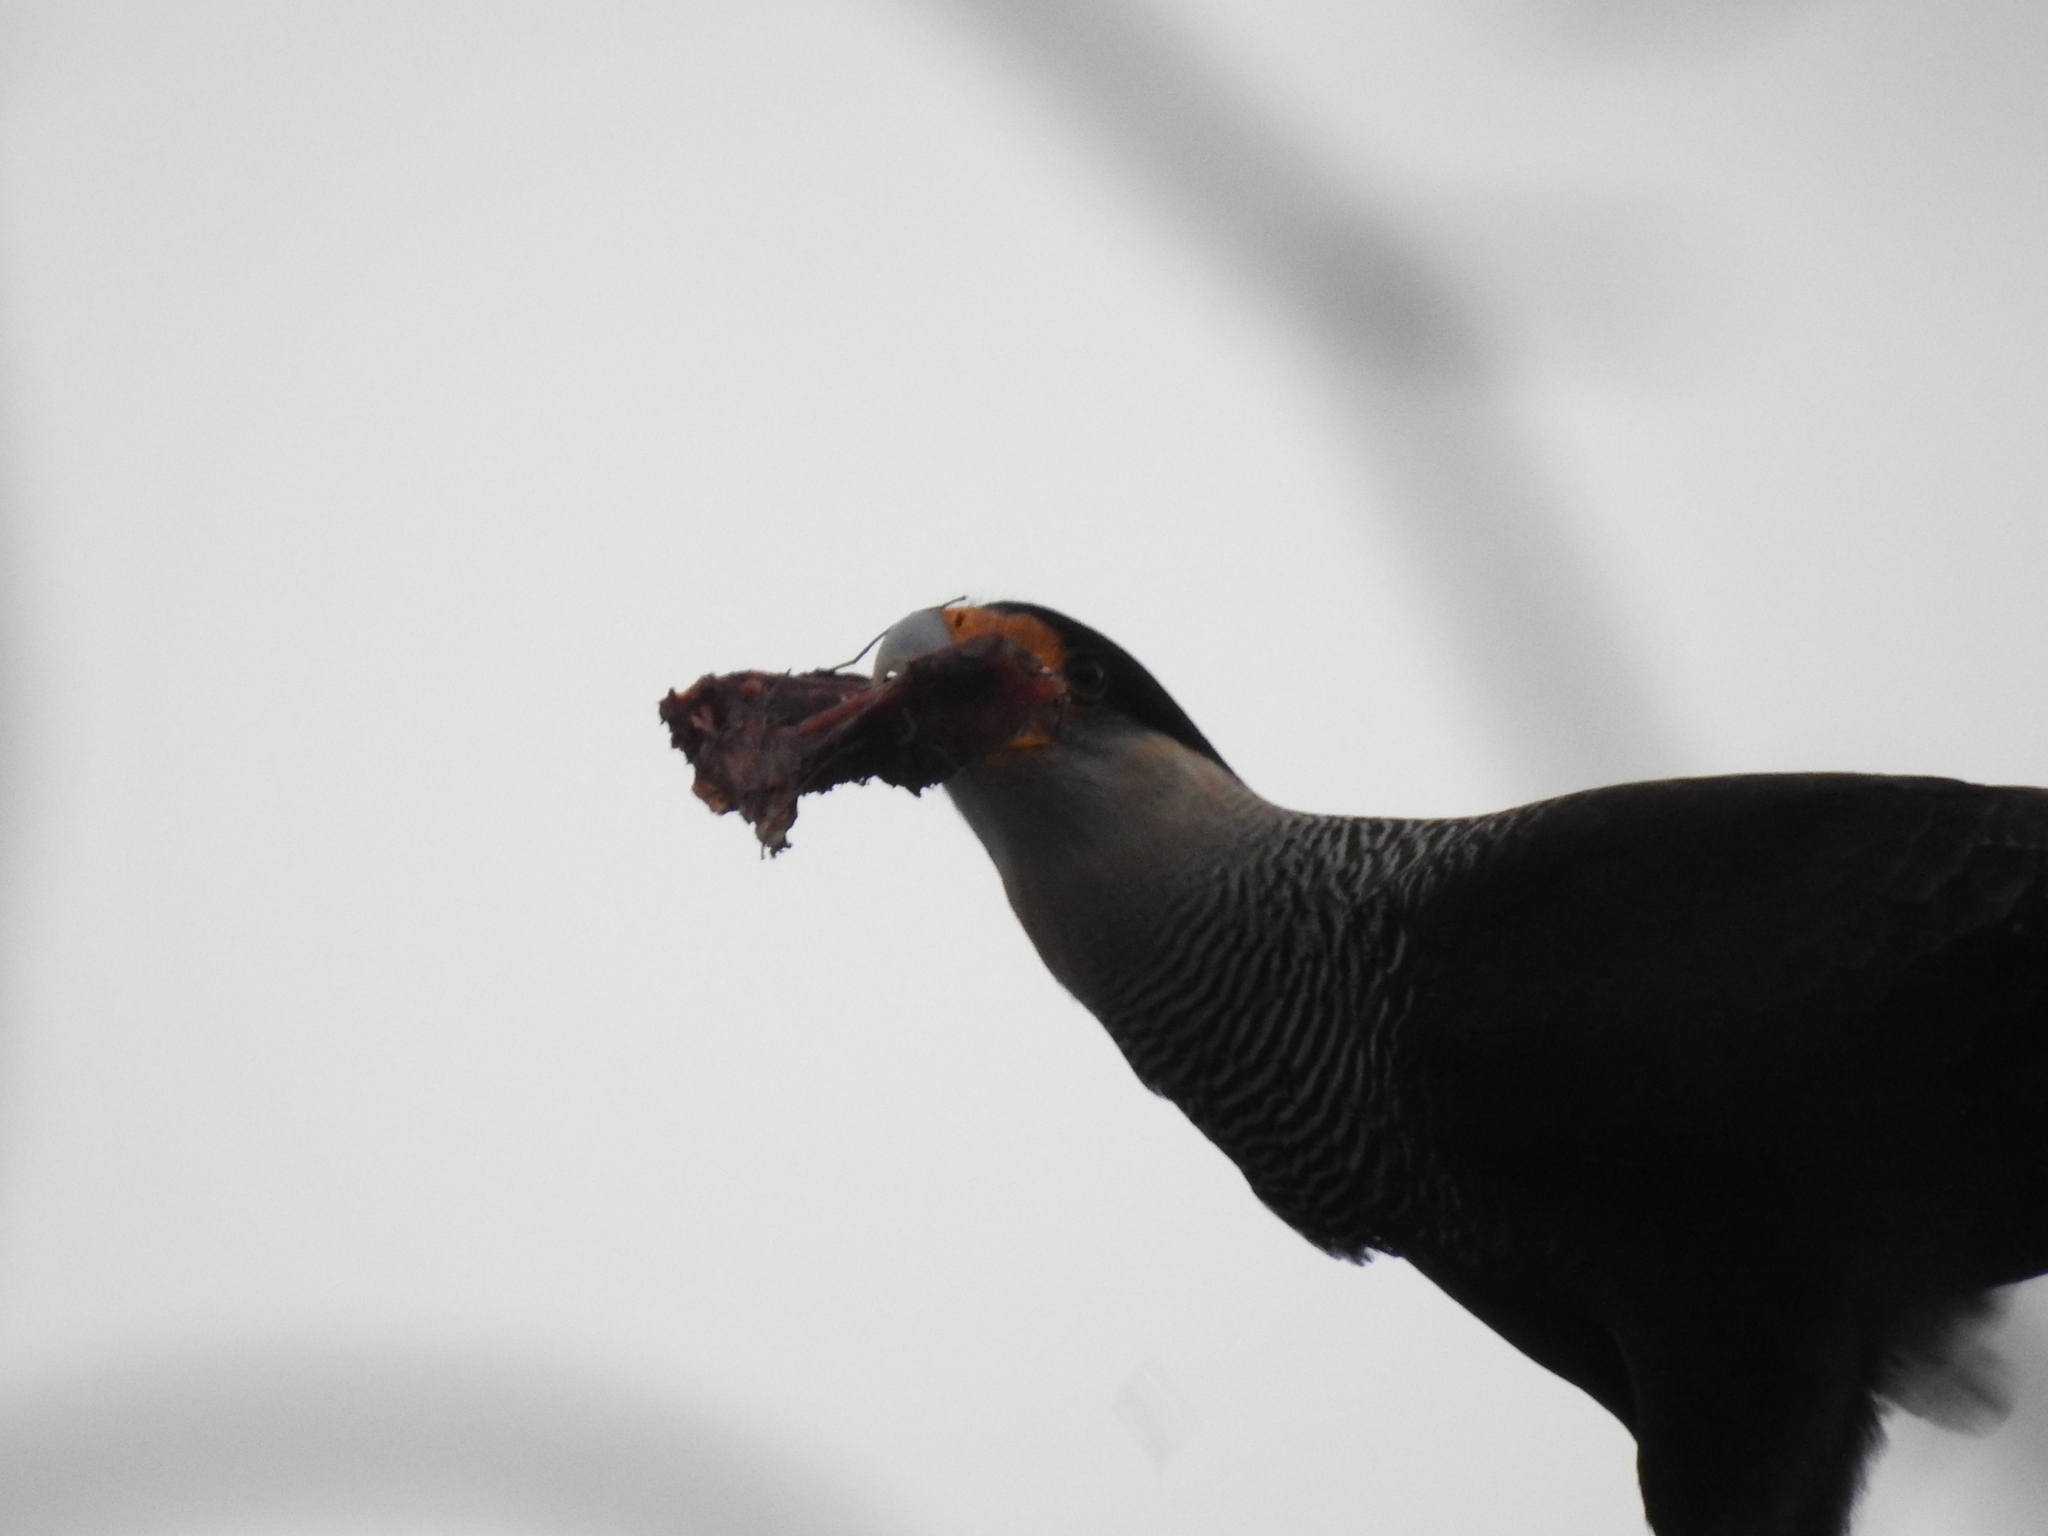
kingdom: Animalia
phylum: Chordata
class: Aves
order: Falconiformes
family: Falconidae
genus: Caracara
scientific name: Caracara plancus
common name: Southern caracara
